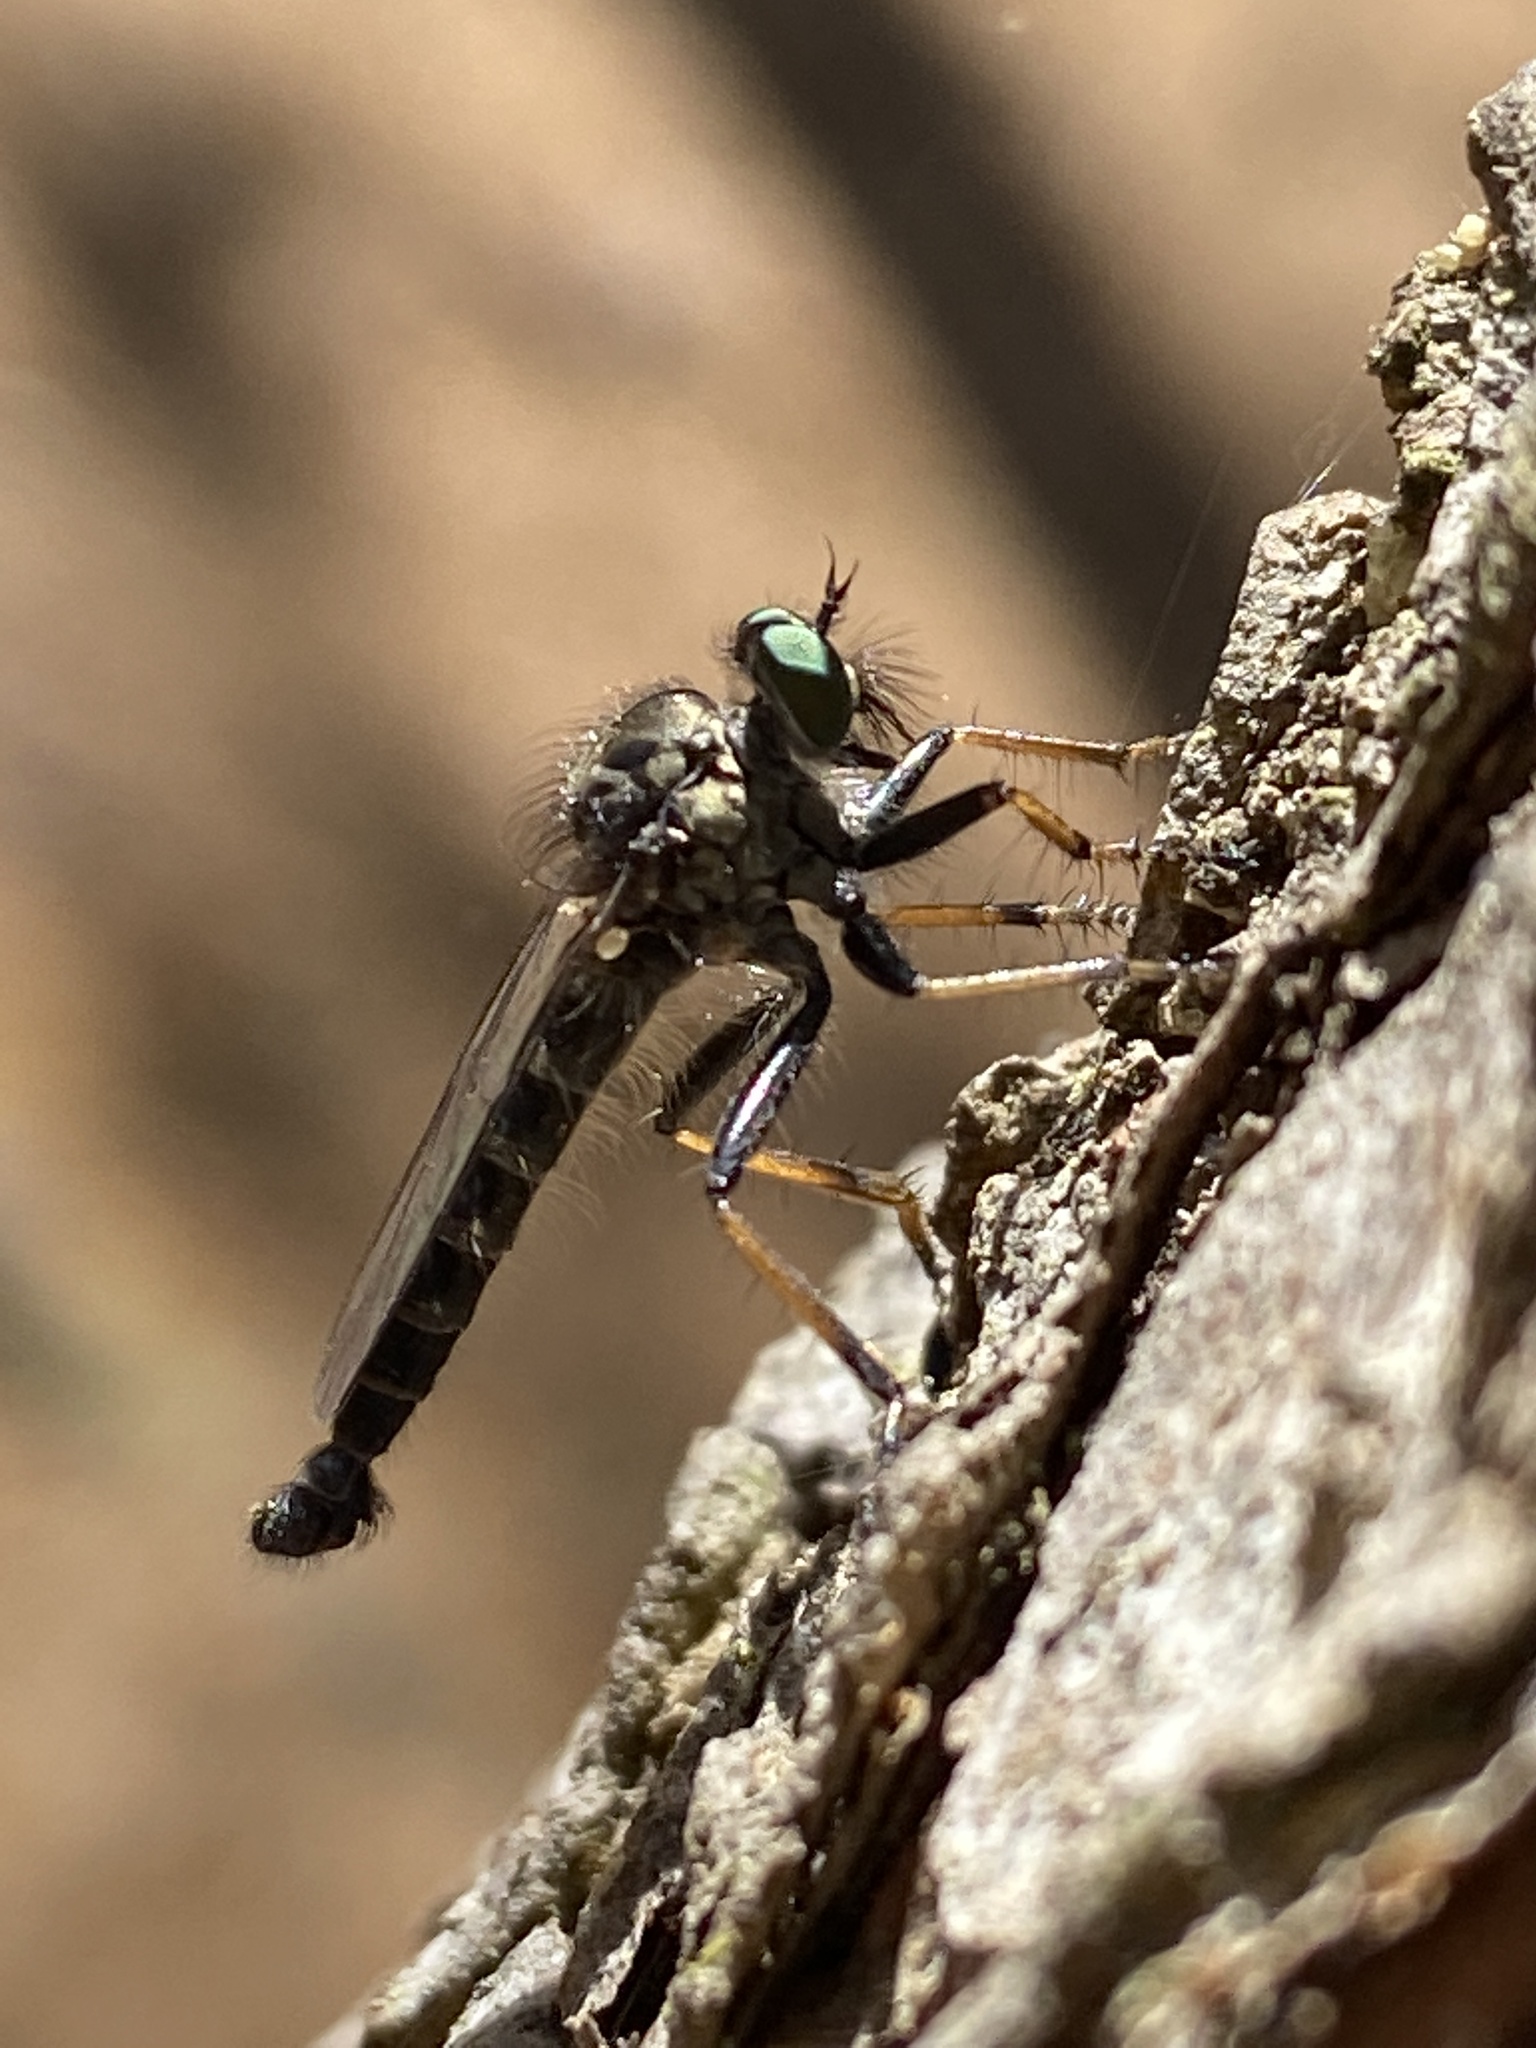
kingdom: Animalia
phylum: Arthropoda
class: Insecta
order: Diptera
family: Asilidae
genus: Neoitamus
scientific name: Neoitamus socius
